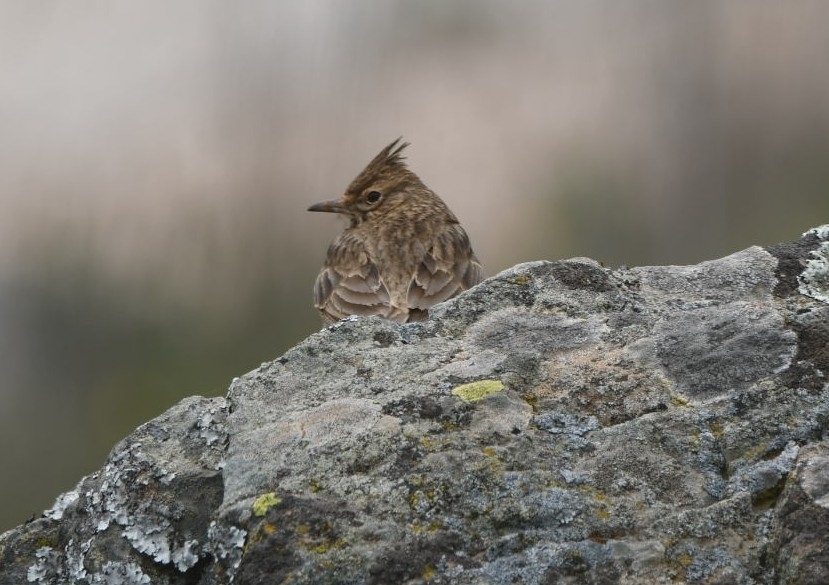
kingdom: Animalia
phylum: Chordata
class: Aves
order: Passeriformes
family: Alaudidae
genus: Galerida
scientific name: Galerida cristata
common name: Crested lark
